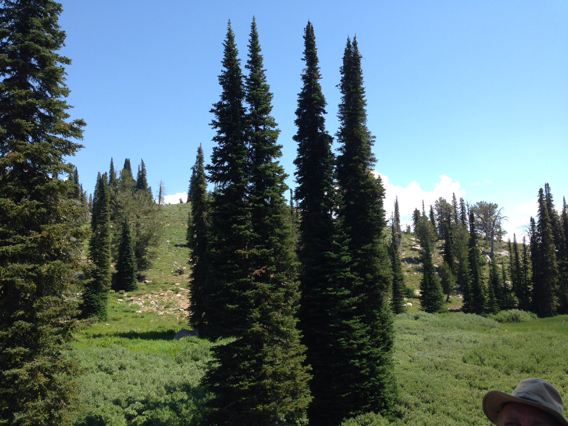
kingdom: Plantae
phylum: Tracheophyta
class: Pinopsida
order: Pinales
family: Pinaceae
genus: Picea
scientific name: Picea engelmannii
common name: Engelmann spruce
